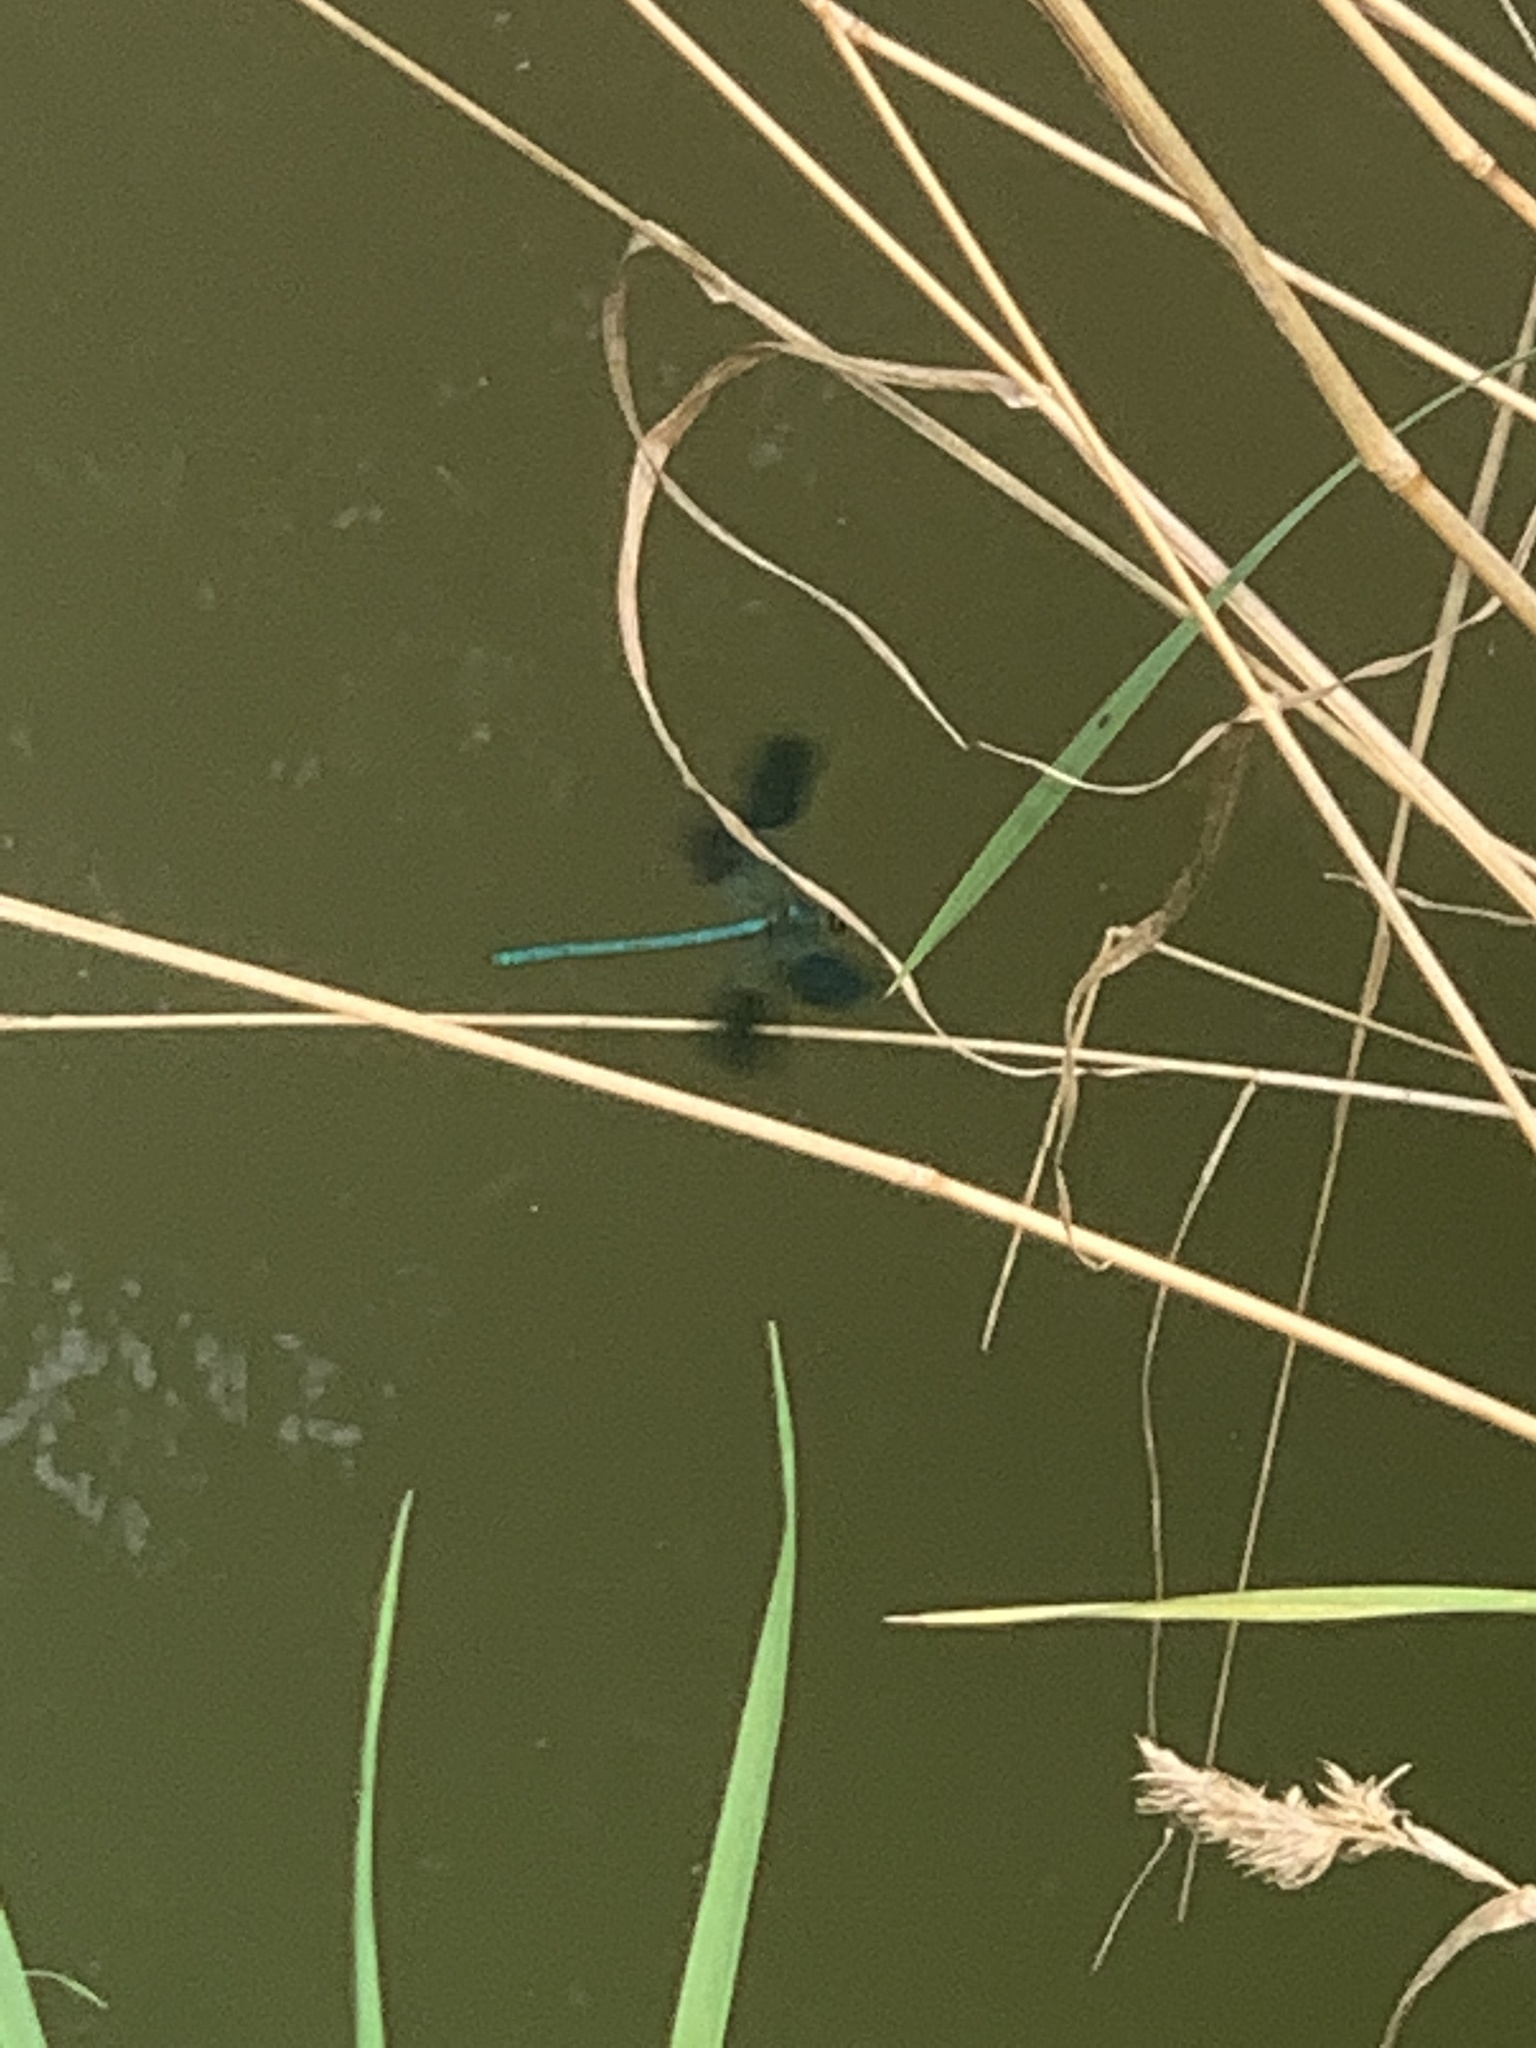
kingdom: Animalia
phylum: Arthropoda
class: Insecta
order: Odonata
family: Calopterygidae
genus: Calopteryx
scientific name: Calopteryx splendens
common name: Banded demoiselle
